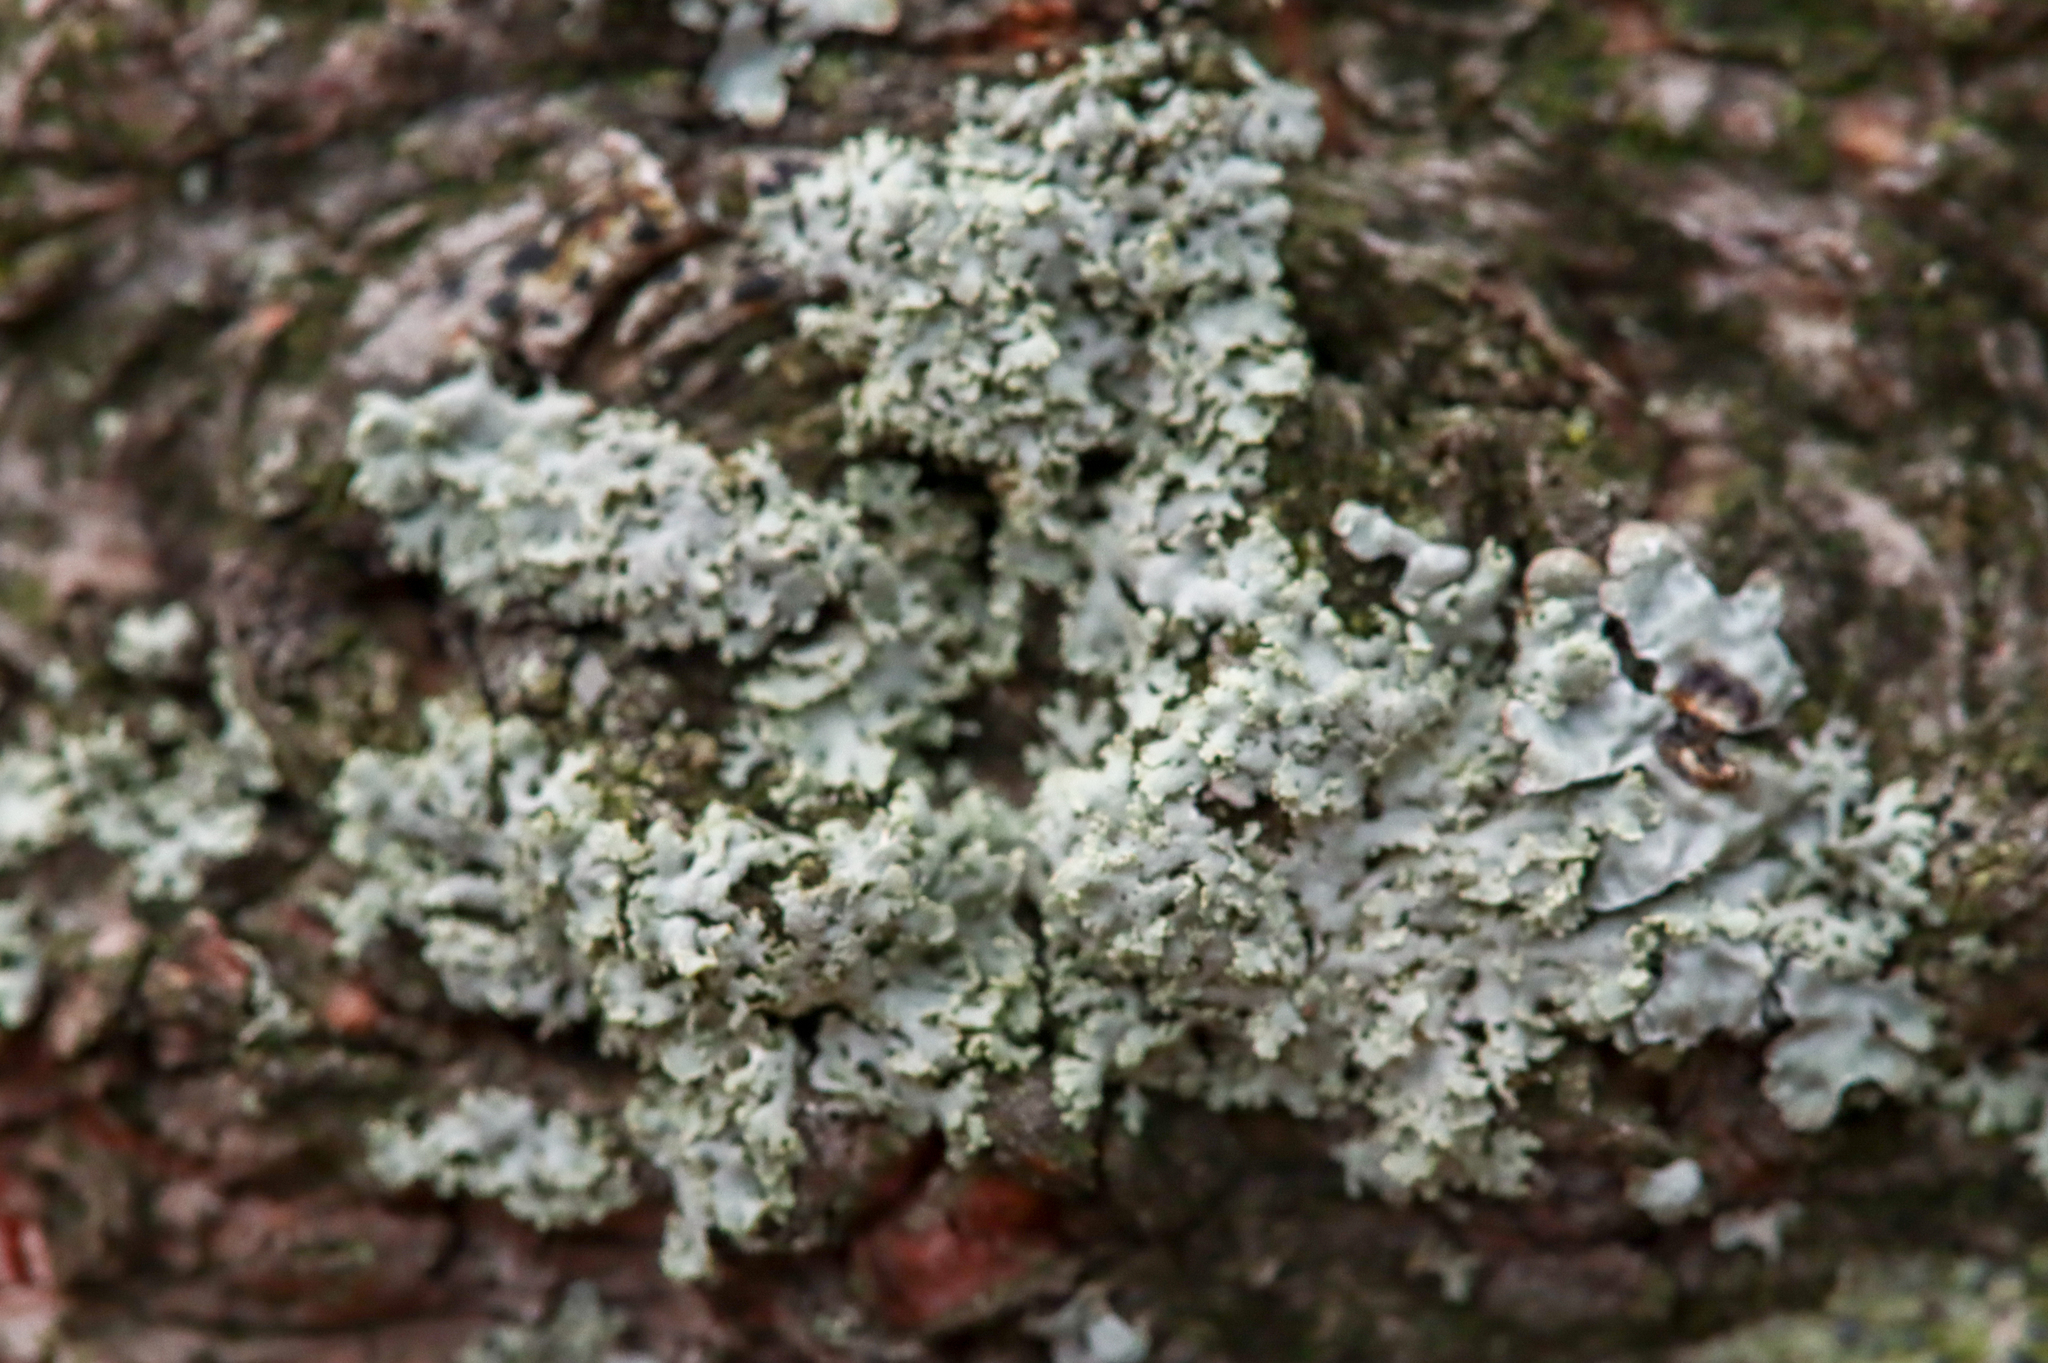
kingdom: Fungi
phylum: Ascomycota
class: Lecanoromycetes
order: Caliciales
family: Physciaceae
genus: Physcia
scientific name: Physcia millegrana
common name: Rosette lichen
